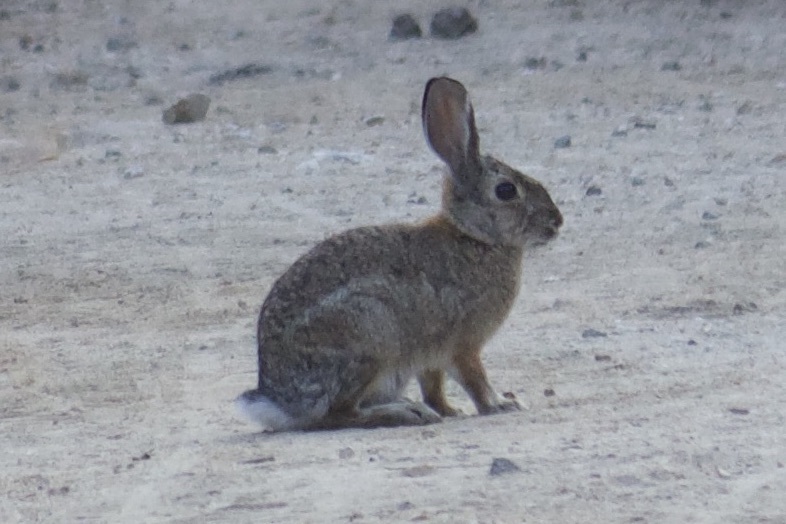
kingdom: Animalia
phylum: Chordata
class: Mammalia
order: Lagomorpha
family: Leporidae
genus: Sylvilagus
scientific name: Sylvilagus audubonii
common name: Desert cottontail
